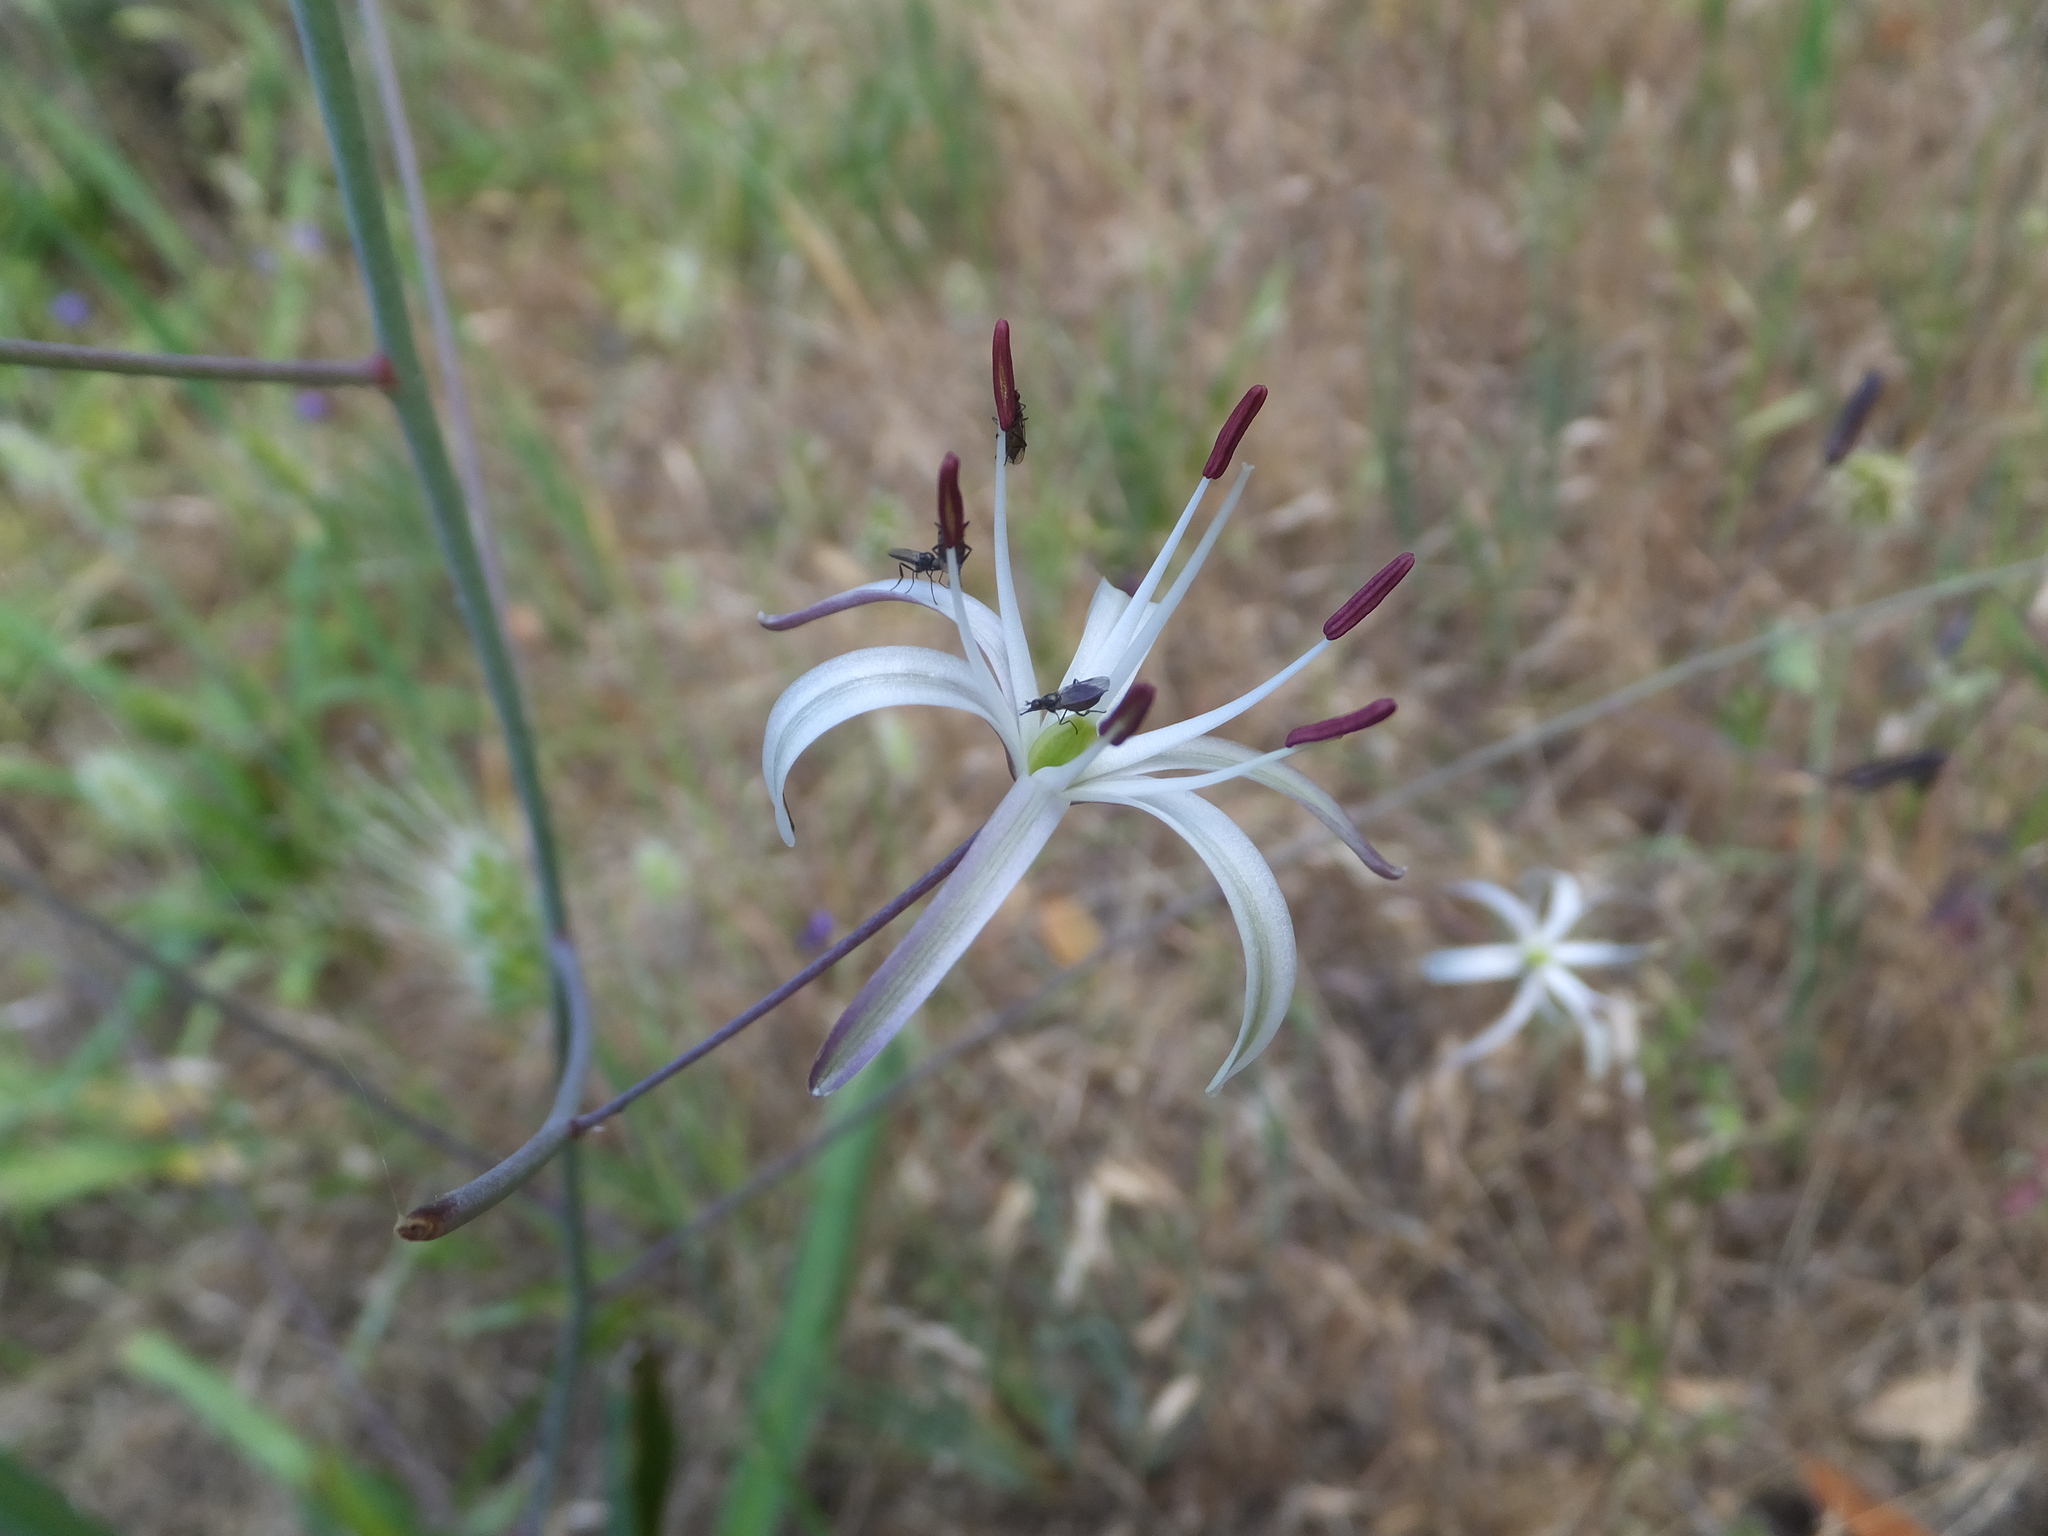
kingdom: Plantae
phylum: Tracheophyta
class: Liliopsida
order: Asparagales
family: Asparagaceae
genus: Chlorogalum
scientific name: Chlorogalum pomeridianum
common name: Amole
